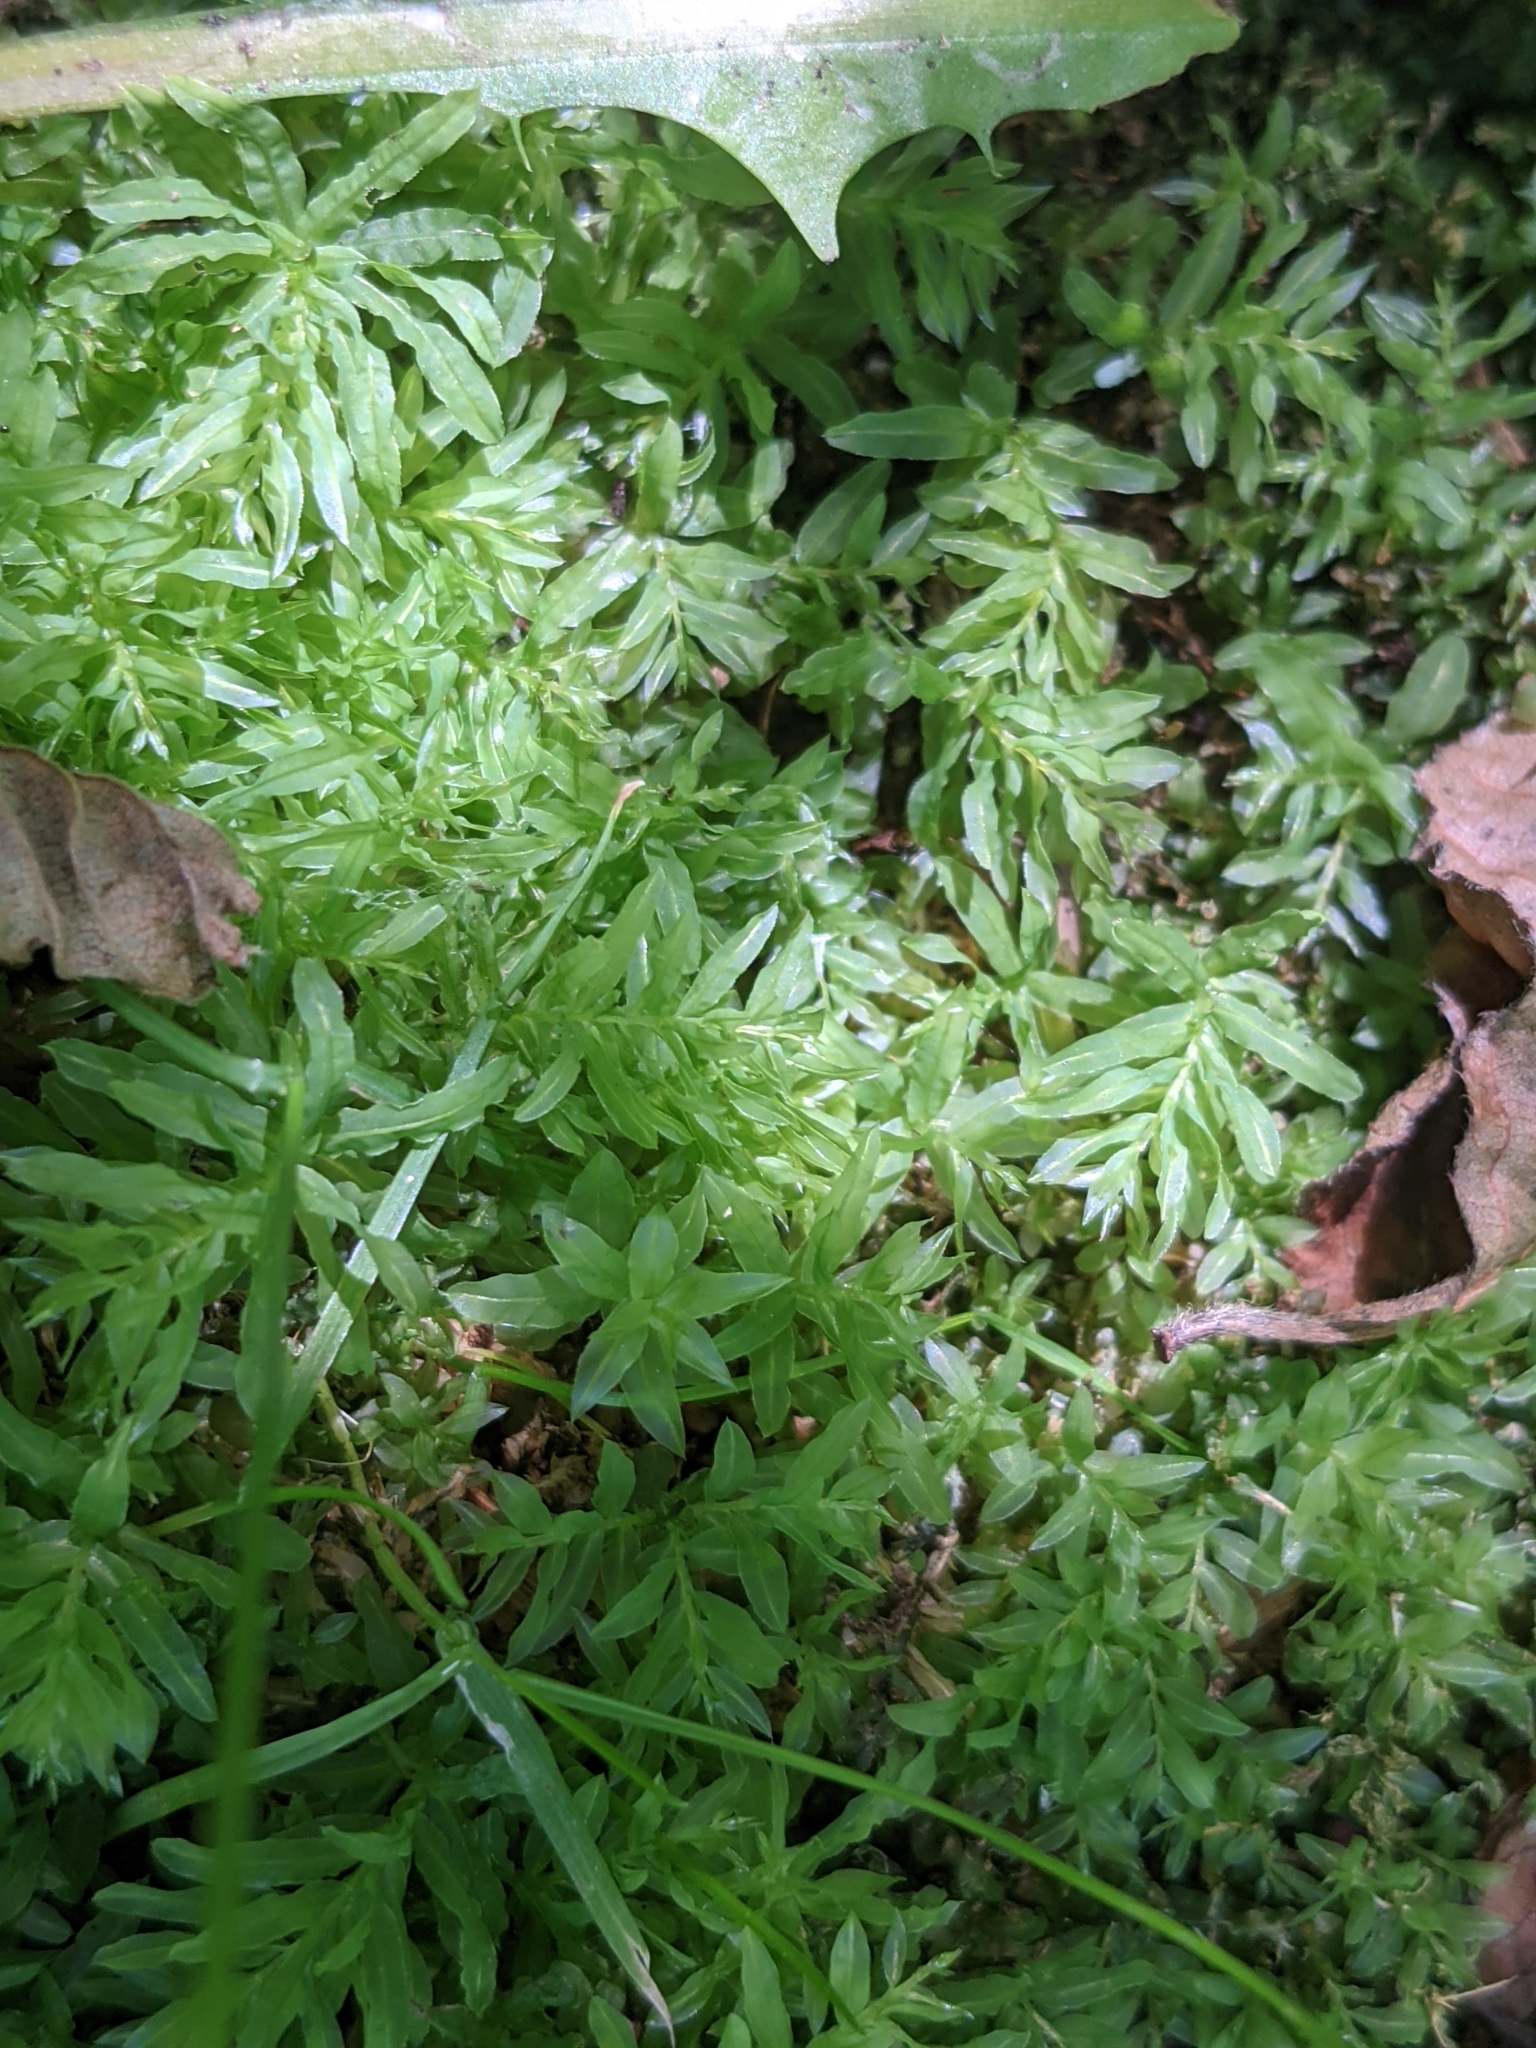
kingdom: Plantae
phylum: Bryophyta
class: Bryopsida
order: Bryales
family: Mniaceae
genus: Plagiomnium
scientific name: Plagiomnium undulatum
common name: Hart's-tongue thyme-moss
